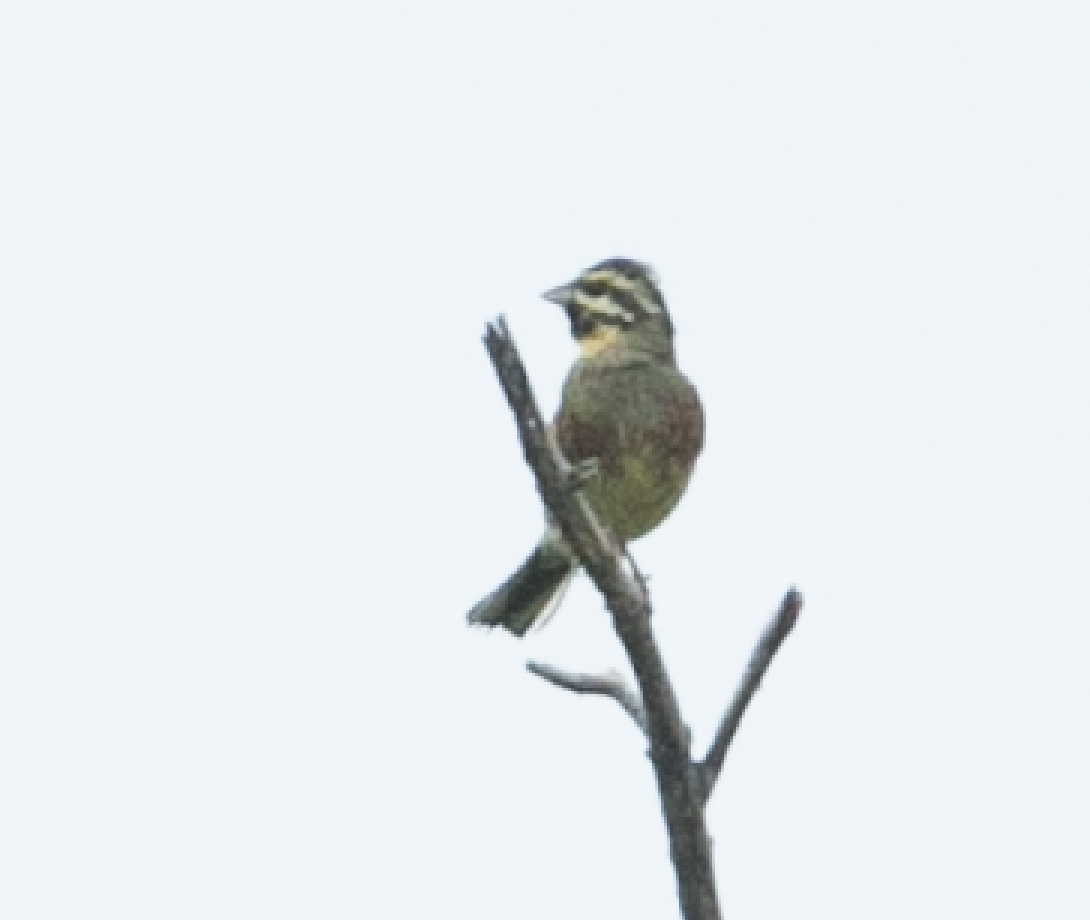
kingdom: Animalia
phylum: Chordata
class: Aves
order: Passeriformes
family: Emberizidae
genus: Emberiza
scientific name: Emberiza cirlus
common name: Cirl bunting
